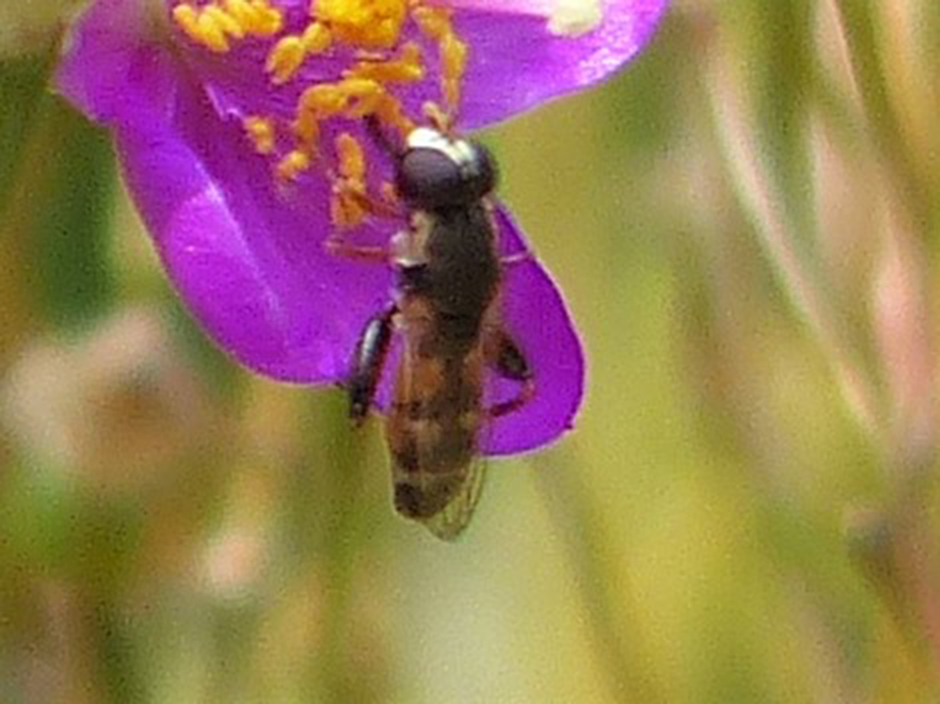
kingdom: Animalia
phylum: Arthropoda
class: Insecta
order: Diptera
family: Syrphidae
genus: Syritta
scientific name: Syritta pipiens
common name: Hover fly
